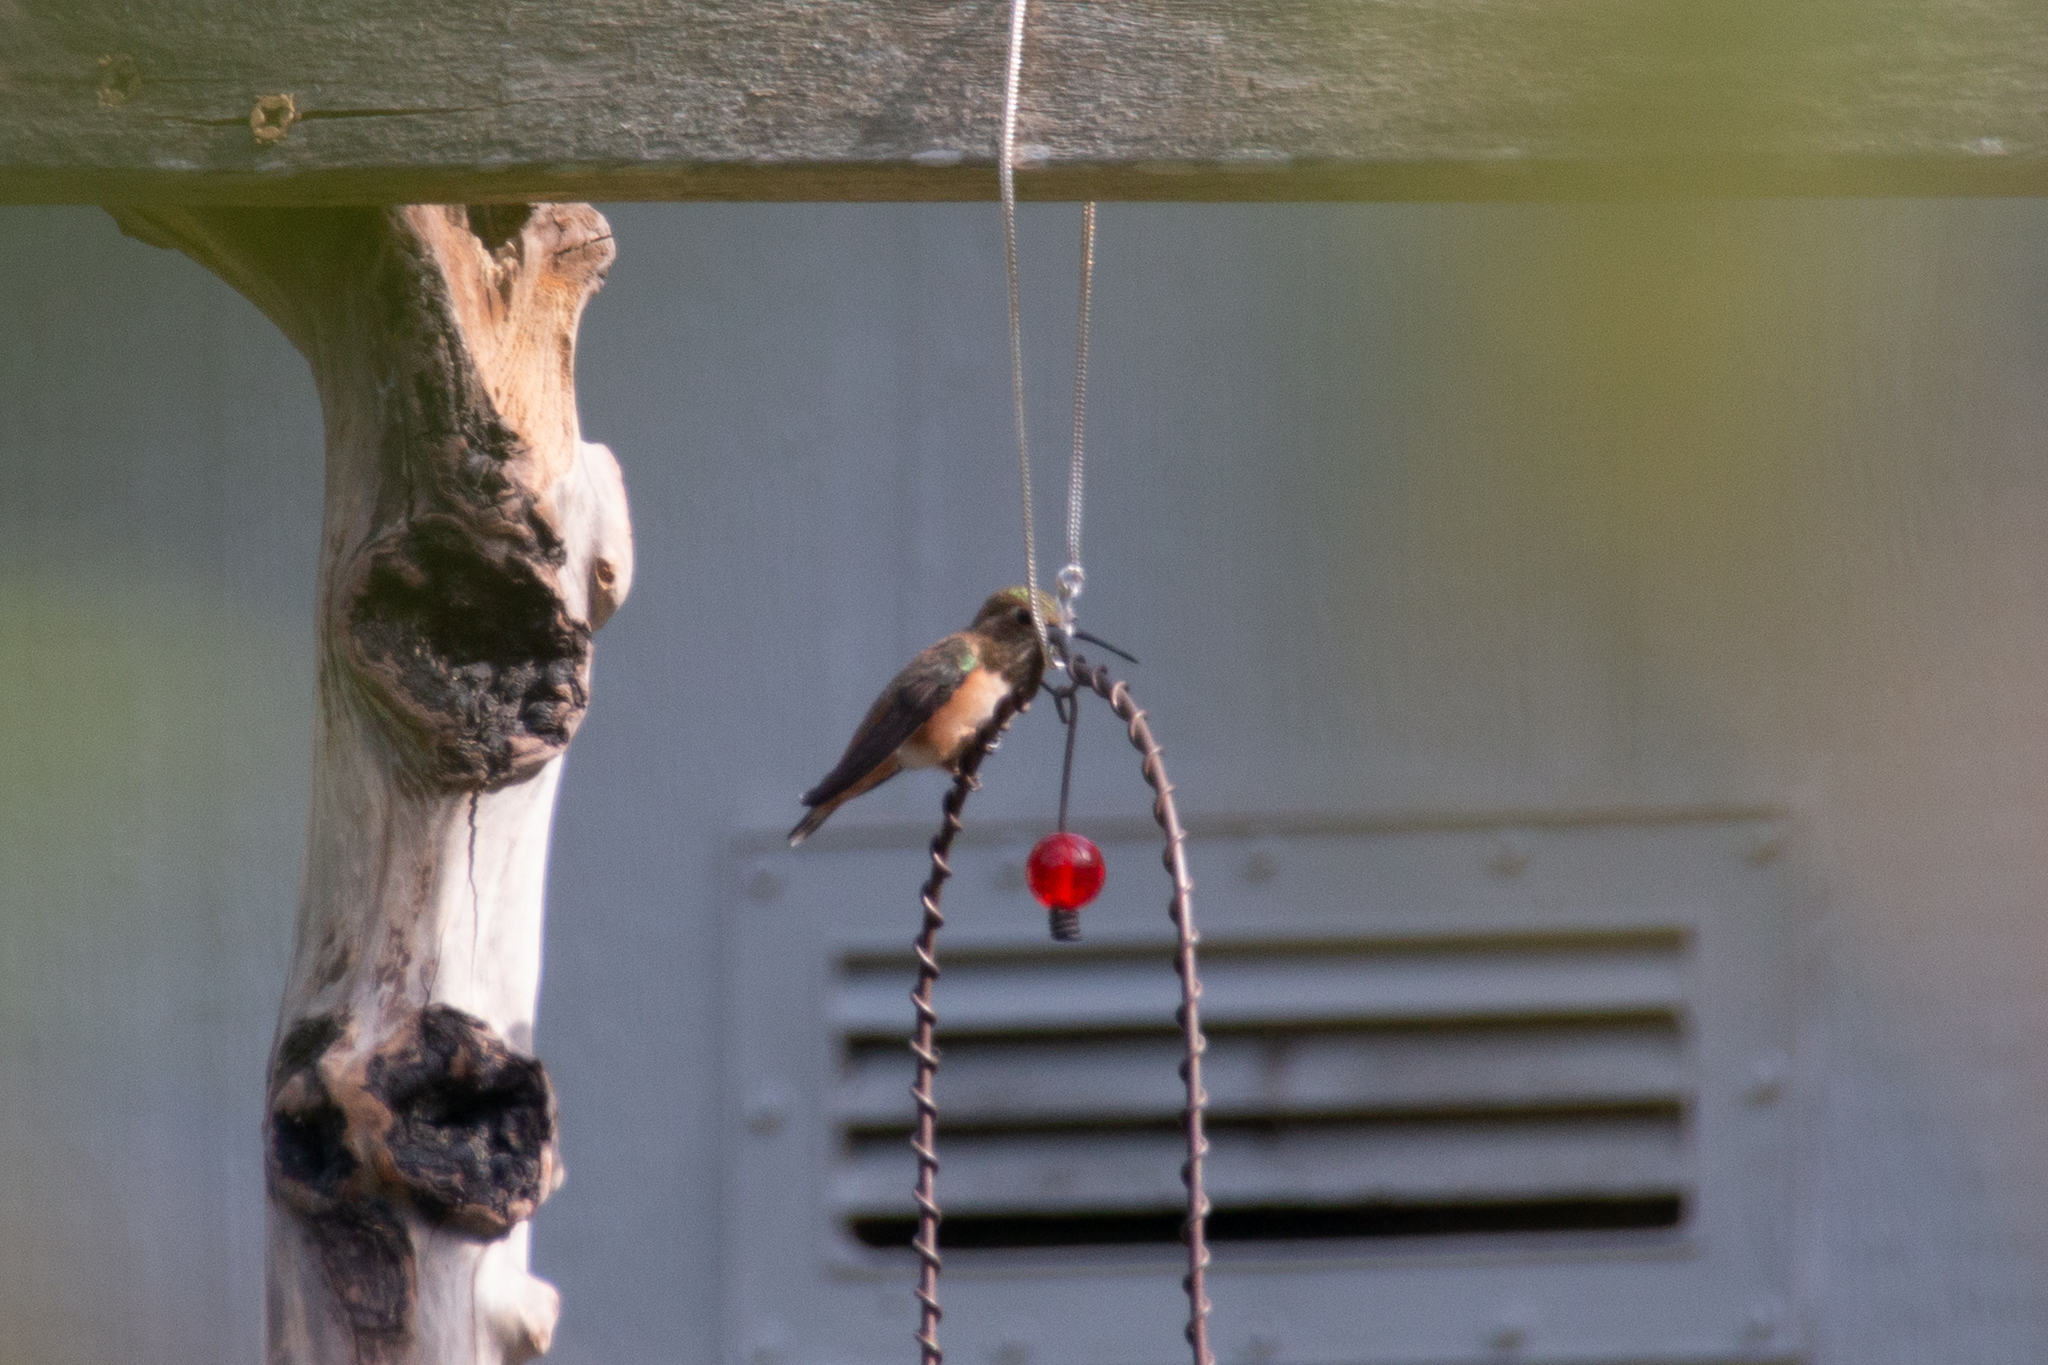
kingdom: Animalia
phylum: Chordata
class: Aves
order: Apodiformes
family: Trochilidae
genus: Selasphorus
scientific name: Selasphorus rufus
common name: Rufous hummingbird
